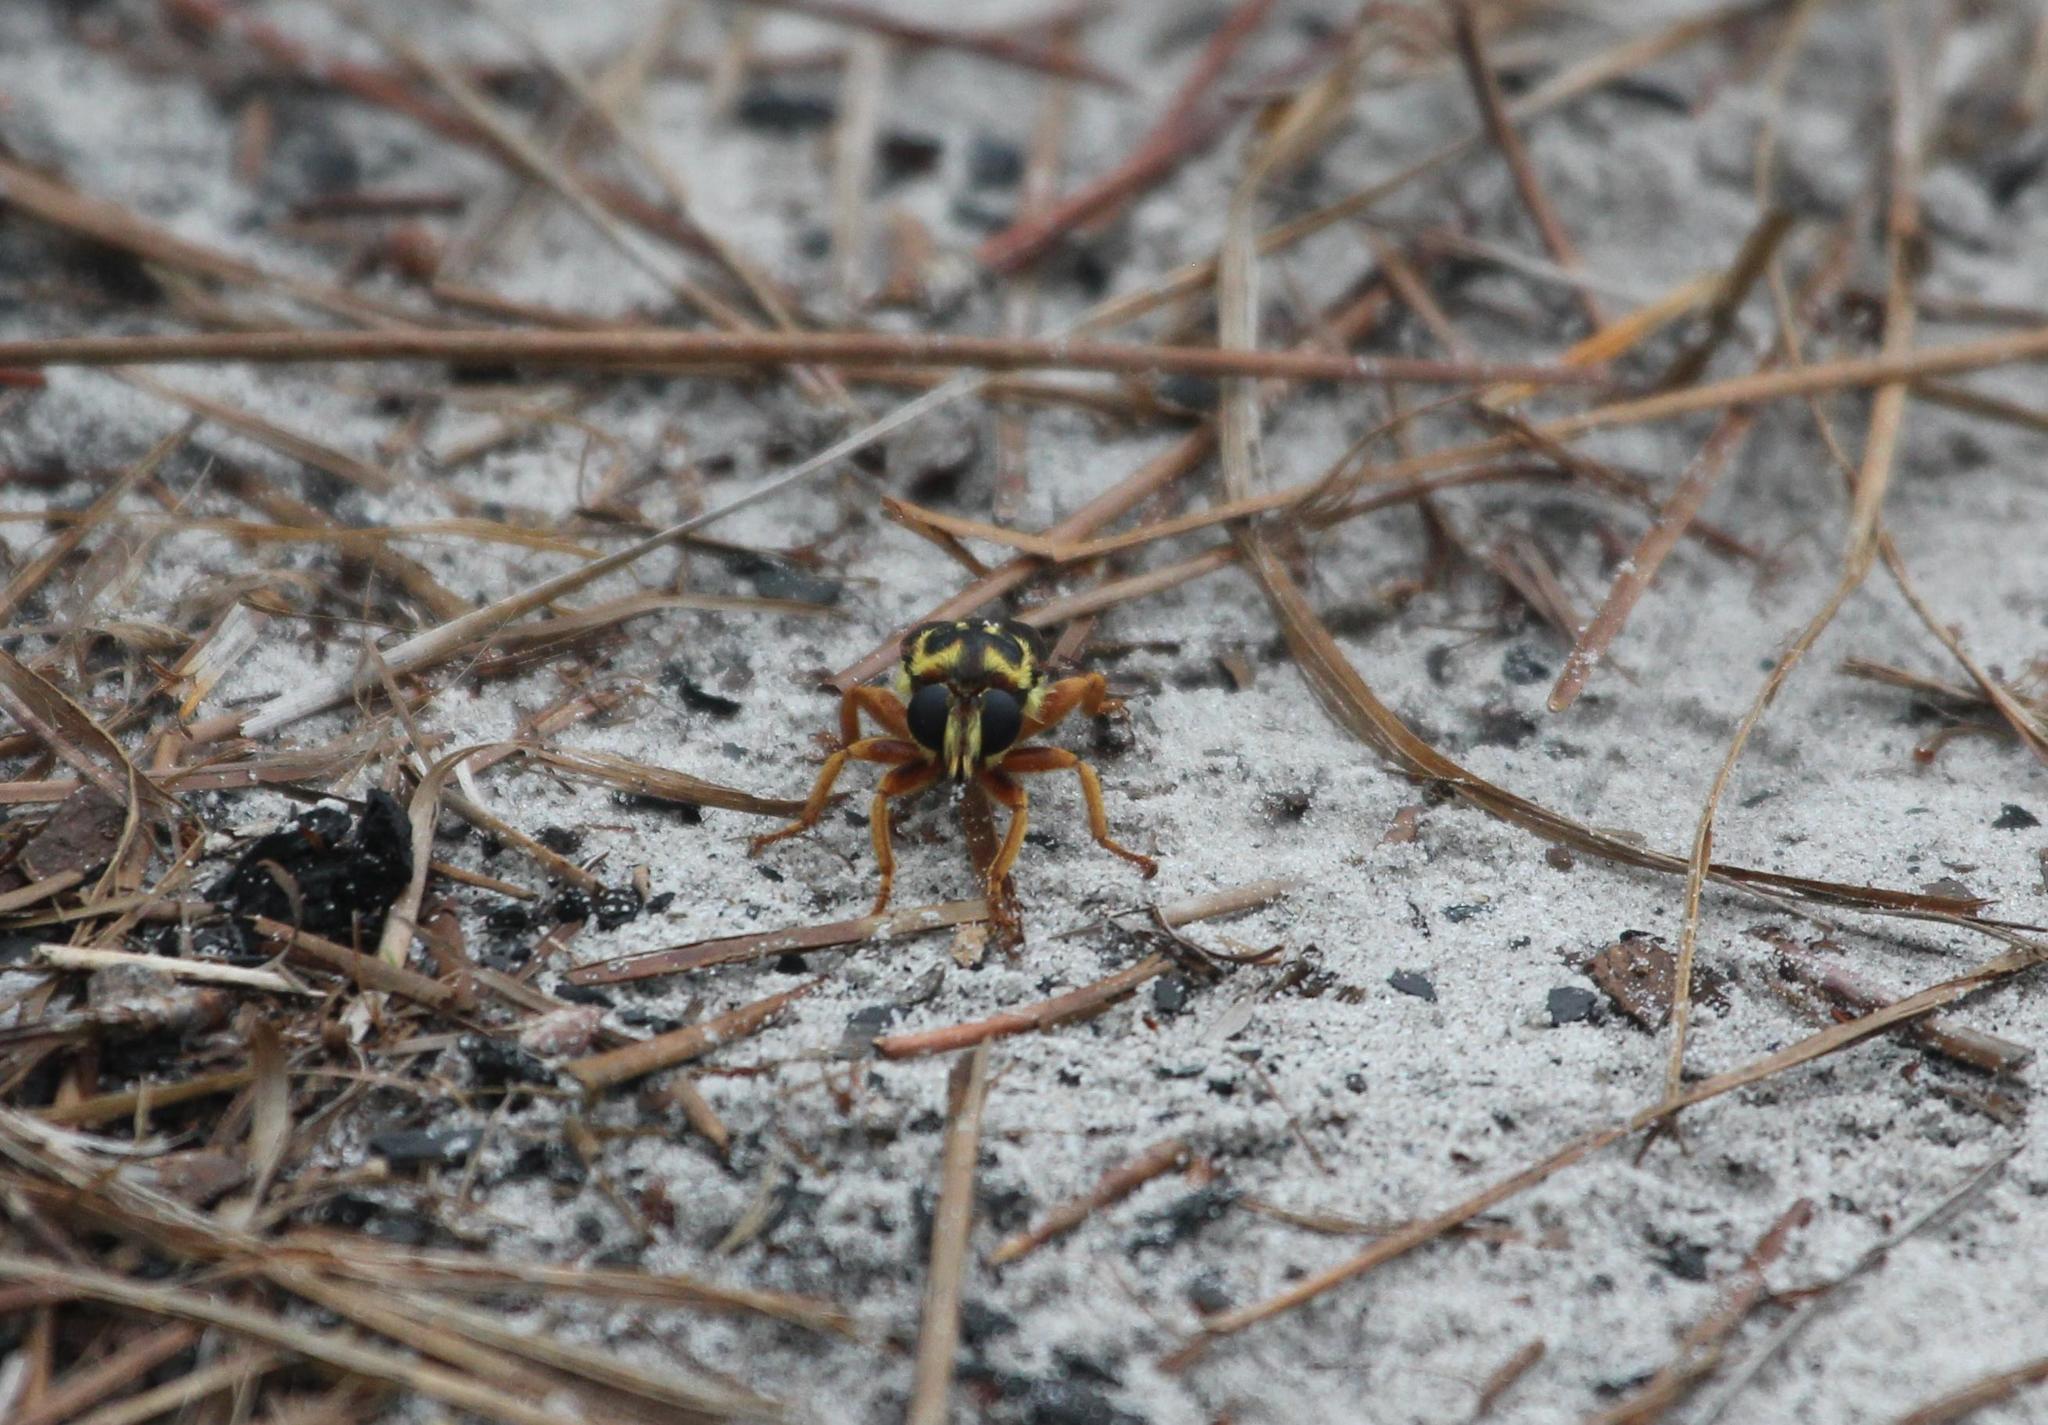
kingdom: Animalia
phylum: Arthropoda
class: Insecta
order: Diptera
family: Syrphidae
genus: Milesia
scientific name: Milesia virginiensis
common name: Virginia giant
